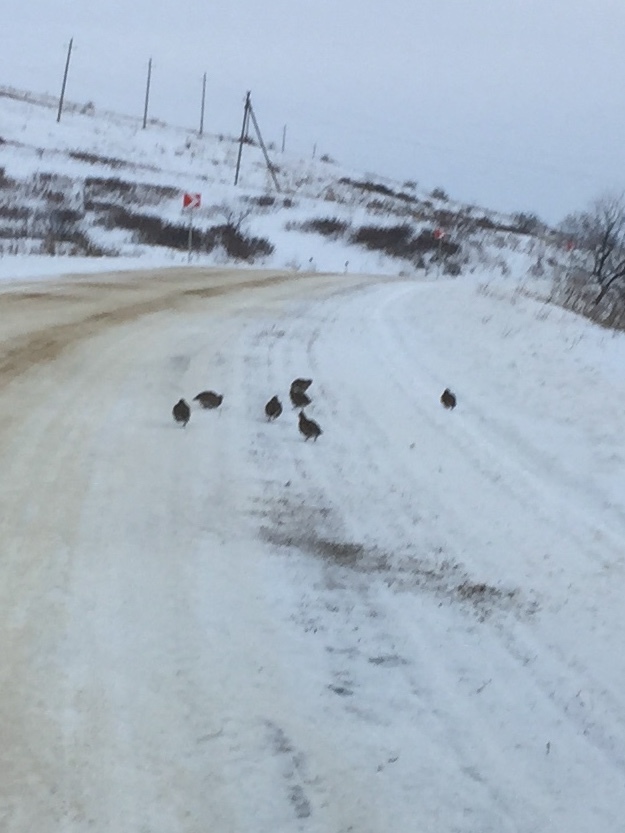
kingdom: Animalia
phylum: Chordata
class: Aves
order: Galliformes
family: Phasianidae
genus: Perdix
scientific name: Perdix perdix
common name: Grey partridge
